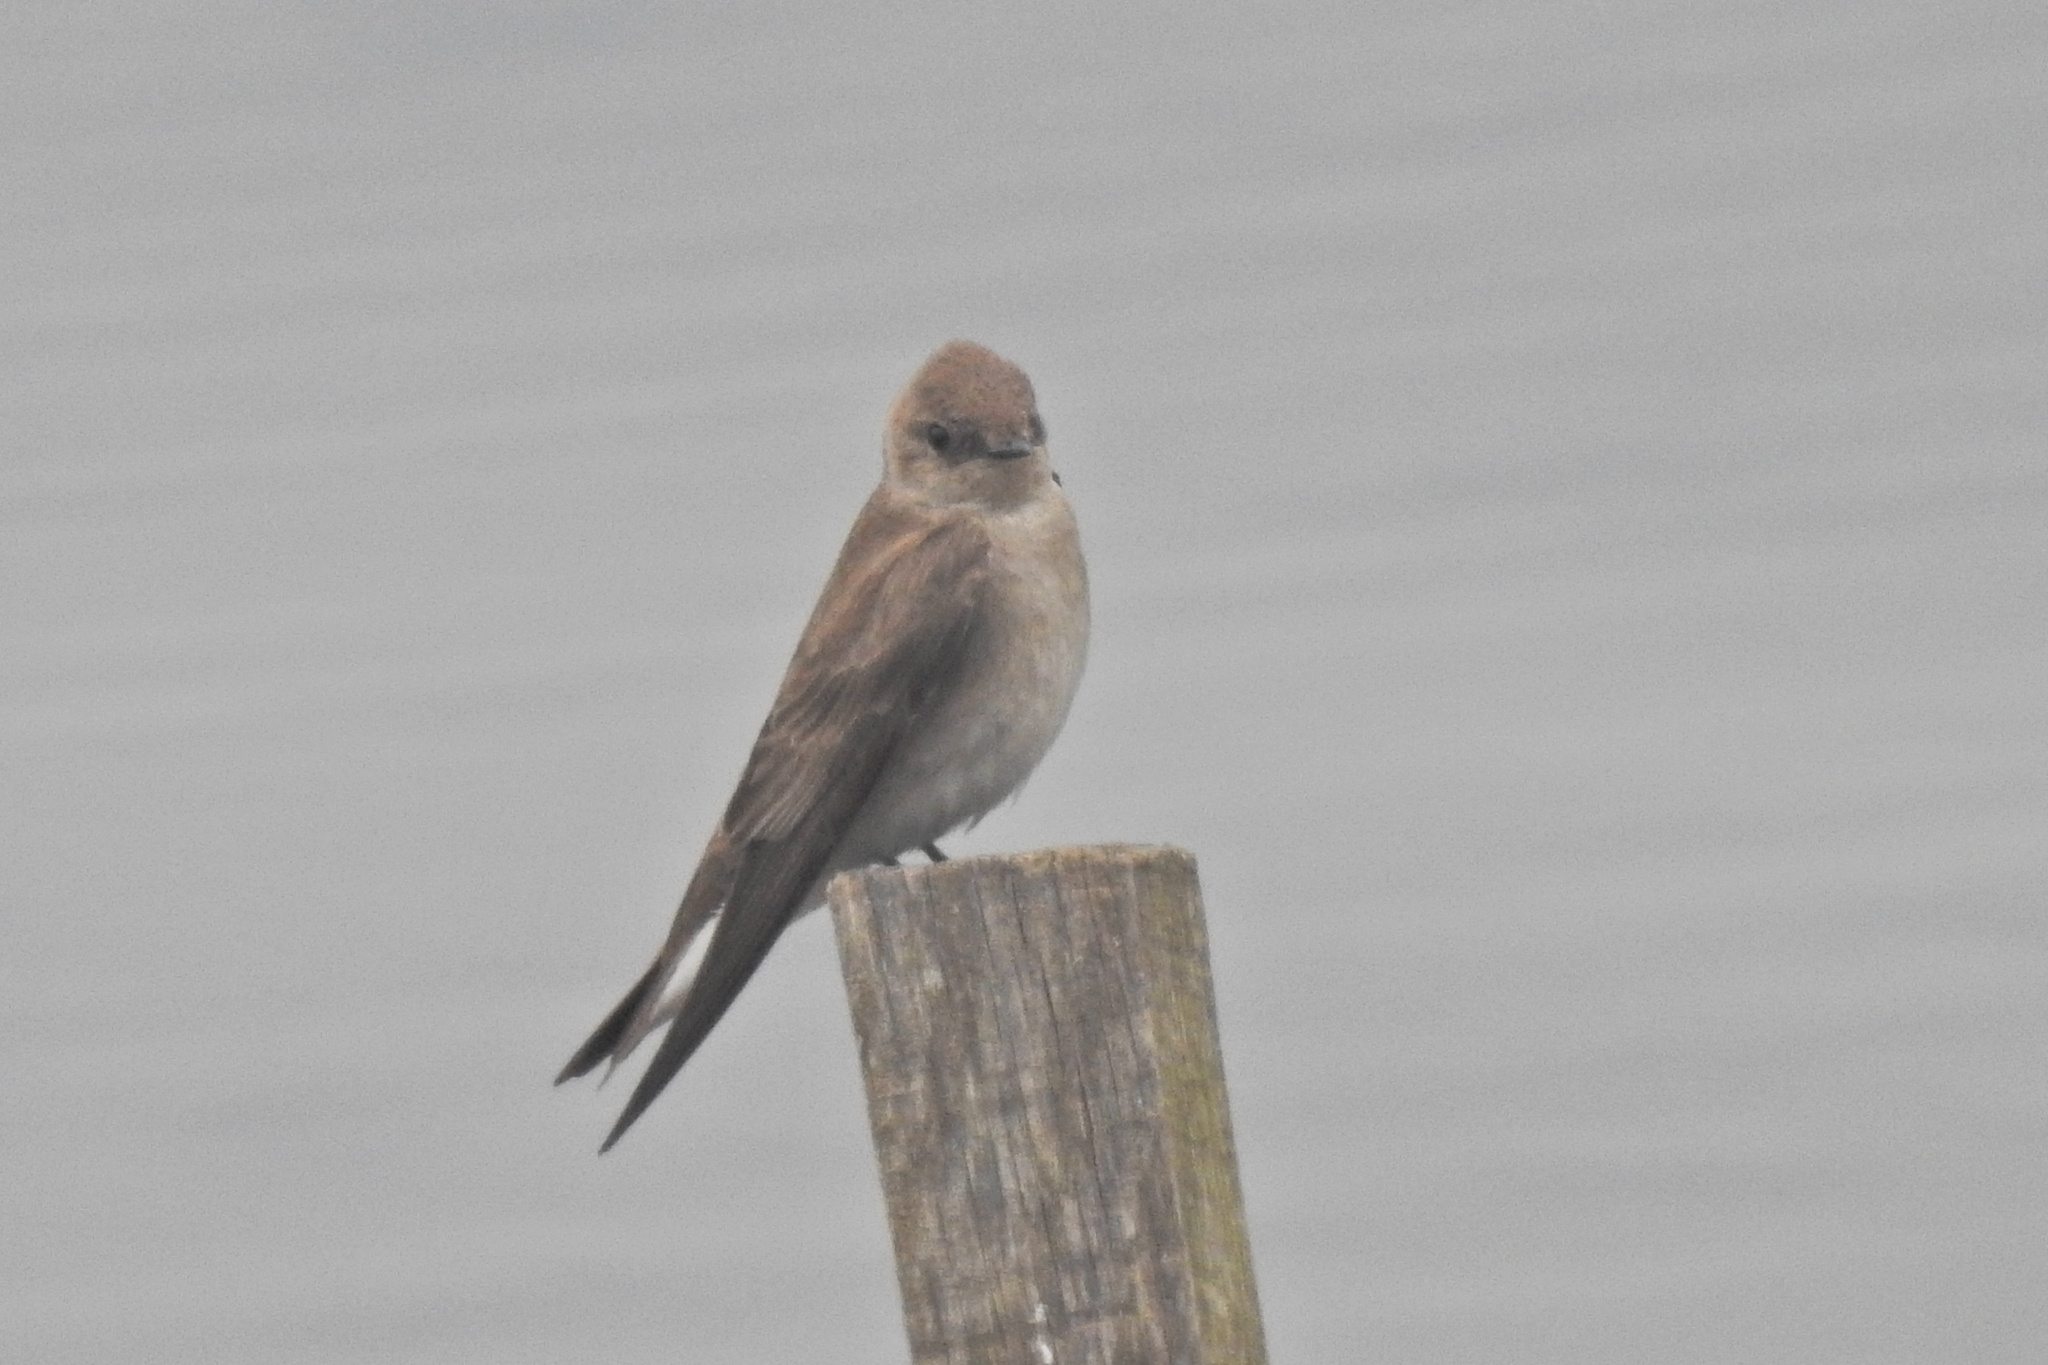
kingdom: Animalia
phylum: Chordata
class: Aves
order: Passeriformes
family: Hirundinidae
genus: Stelgidopteryx
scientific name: Stelgidopteryx serripennis
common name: Northern rough-winged swallow
